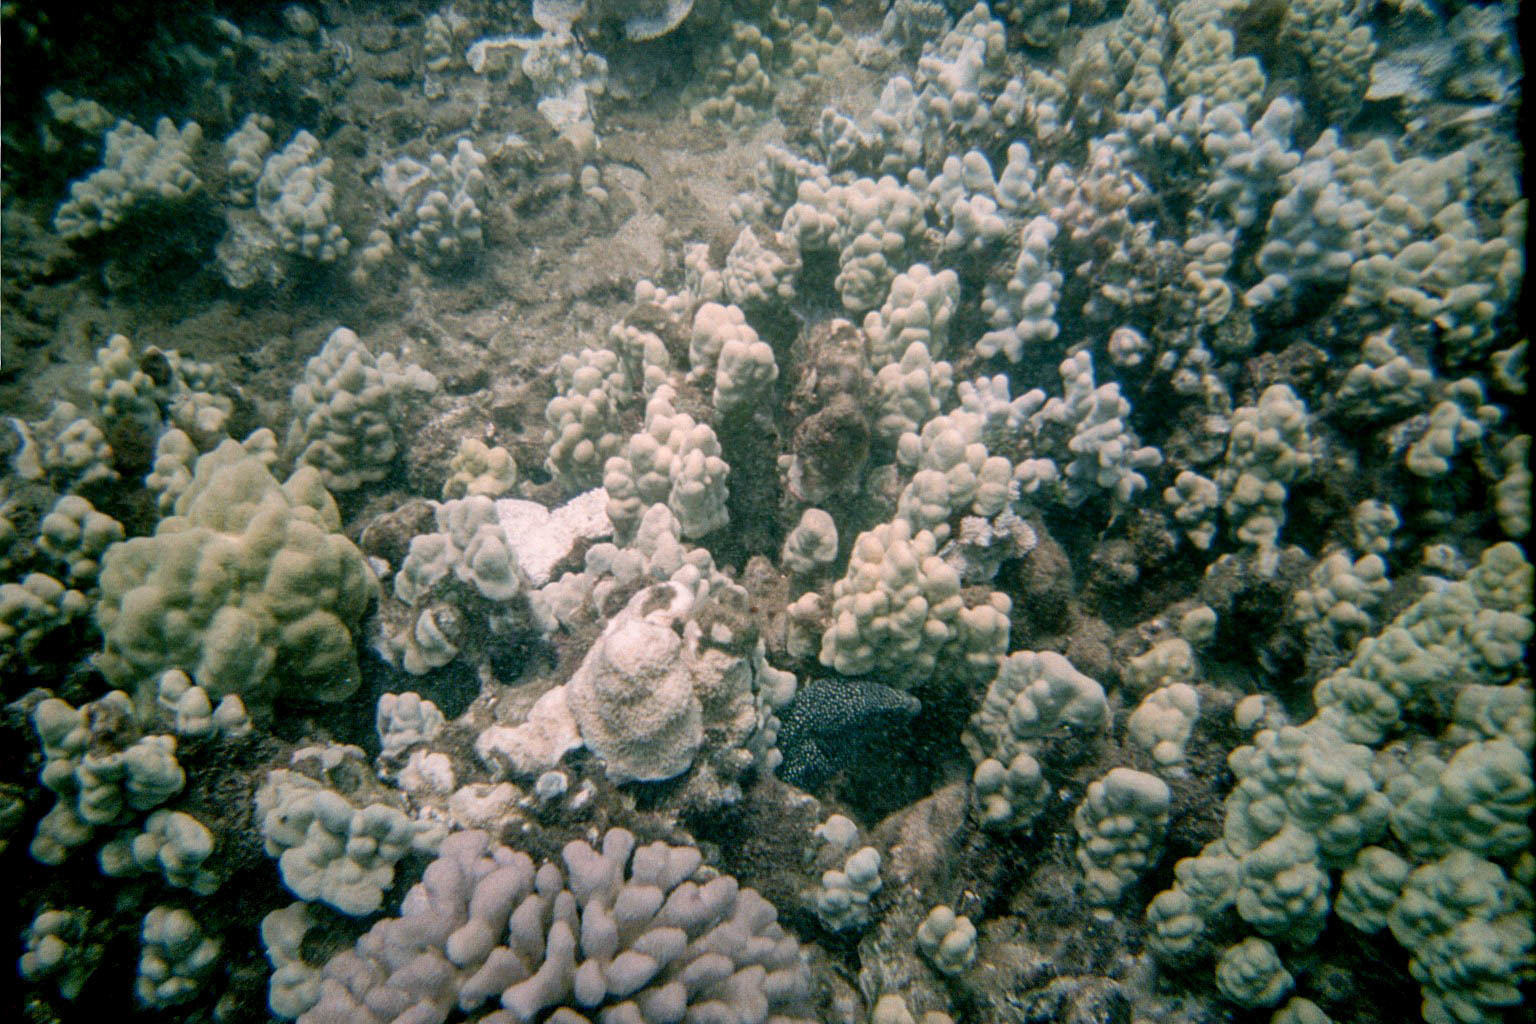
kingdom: Animalia
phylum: Chordata
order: Anguilliformes
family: Muraenidae
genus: Gymnothorax
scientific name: Gymnothorax meleagris
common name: Guineafowl moray
